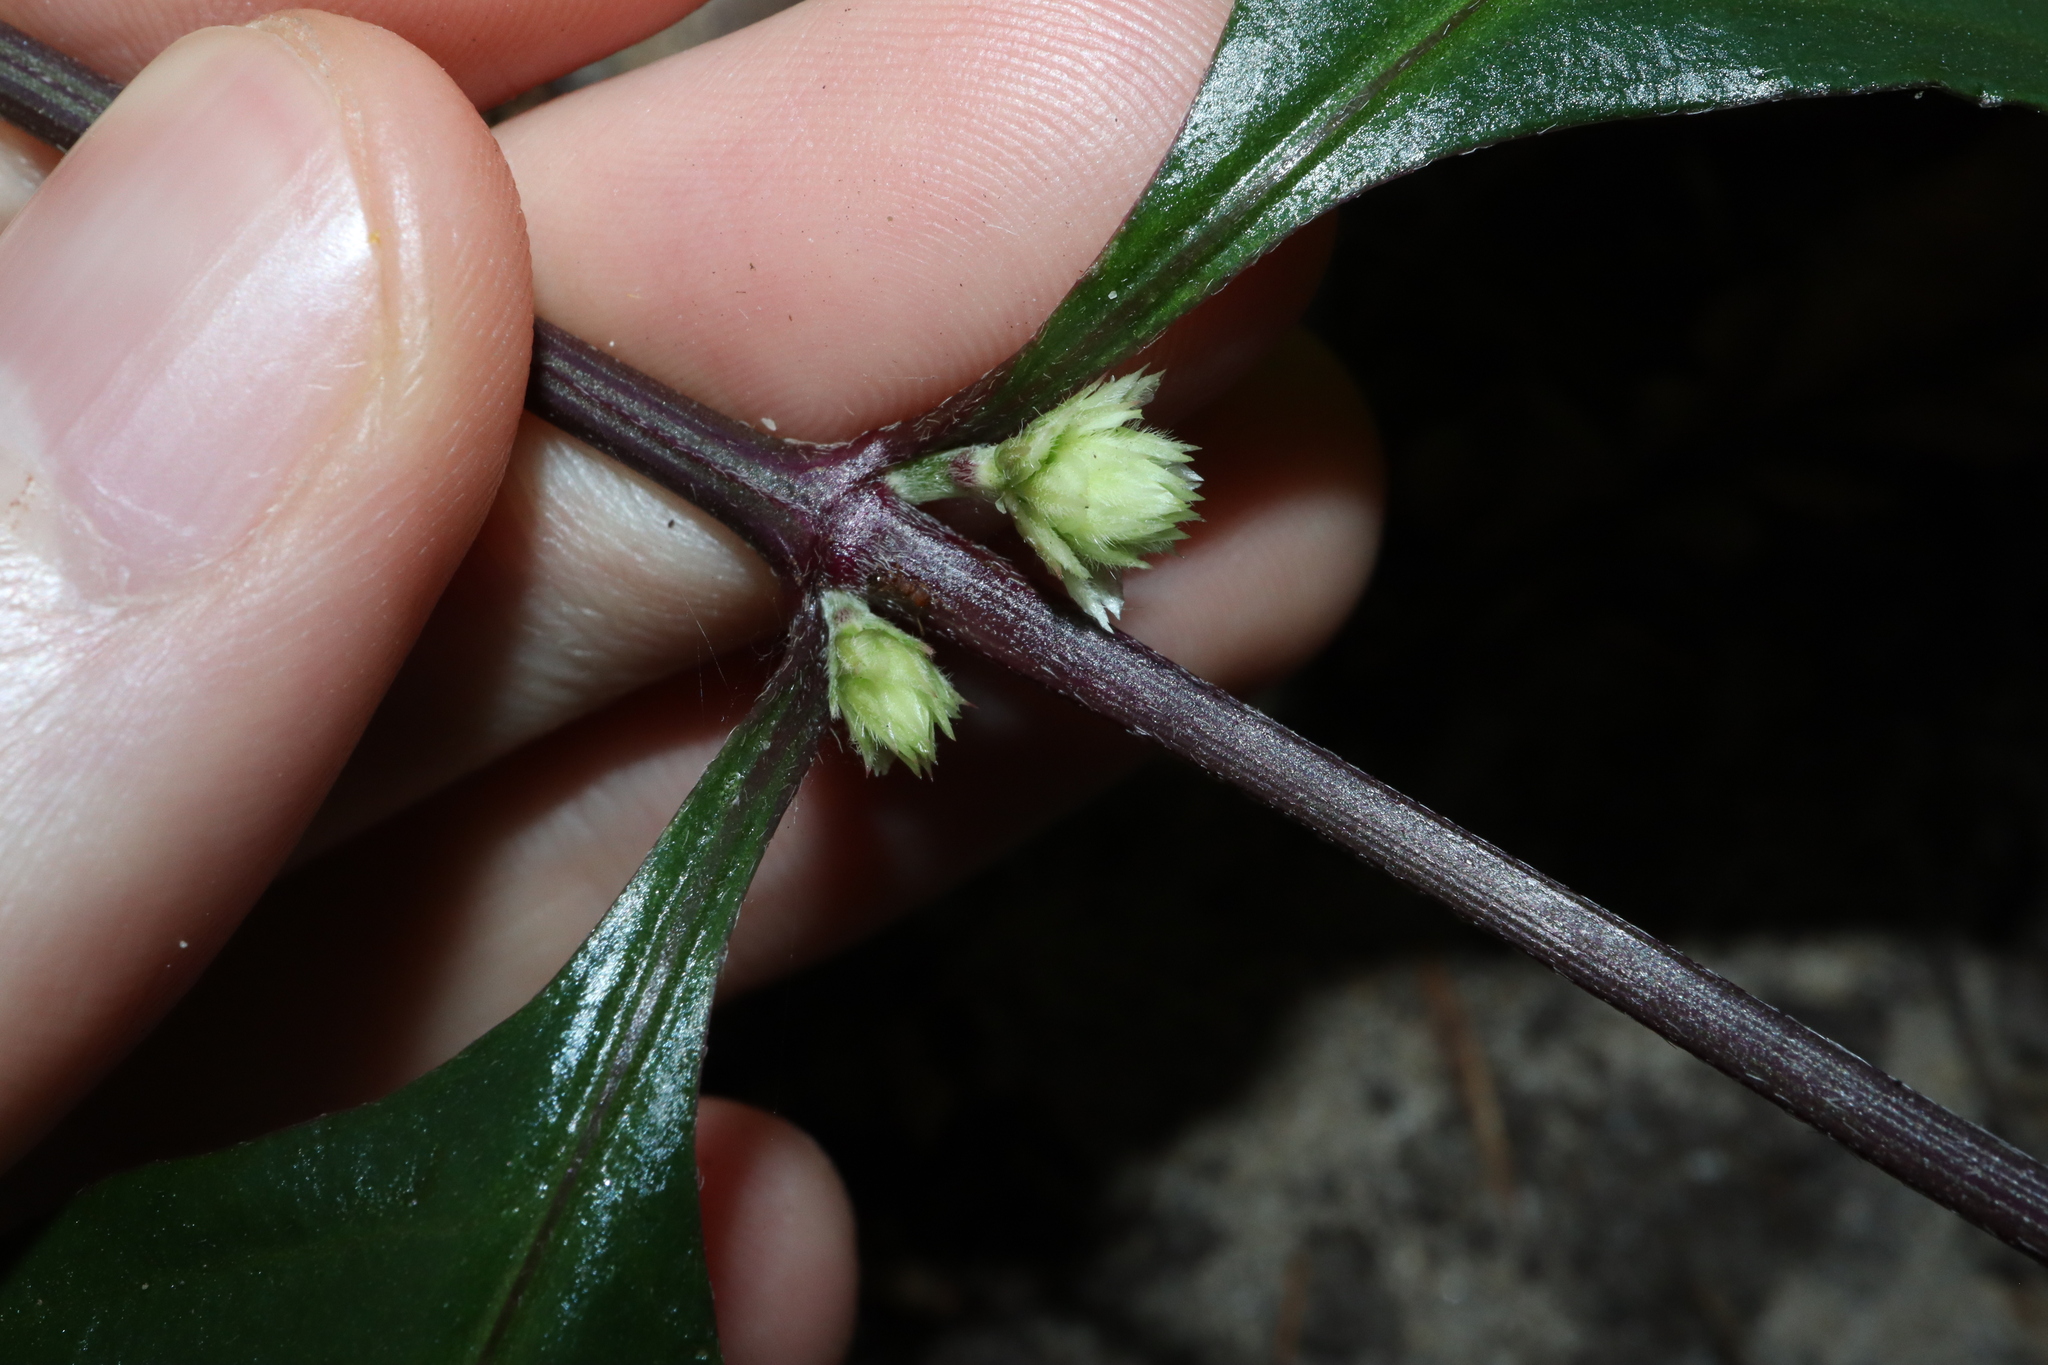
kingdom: Plantae
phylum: Tracheophyta
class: Magnoliopsida
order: Caryophyllales
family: Amaranthaceae
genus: Alternanthera
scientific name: Alternanthera brasiliana
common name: Brazilian joyweed
